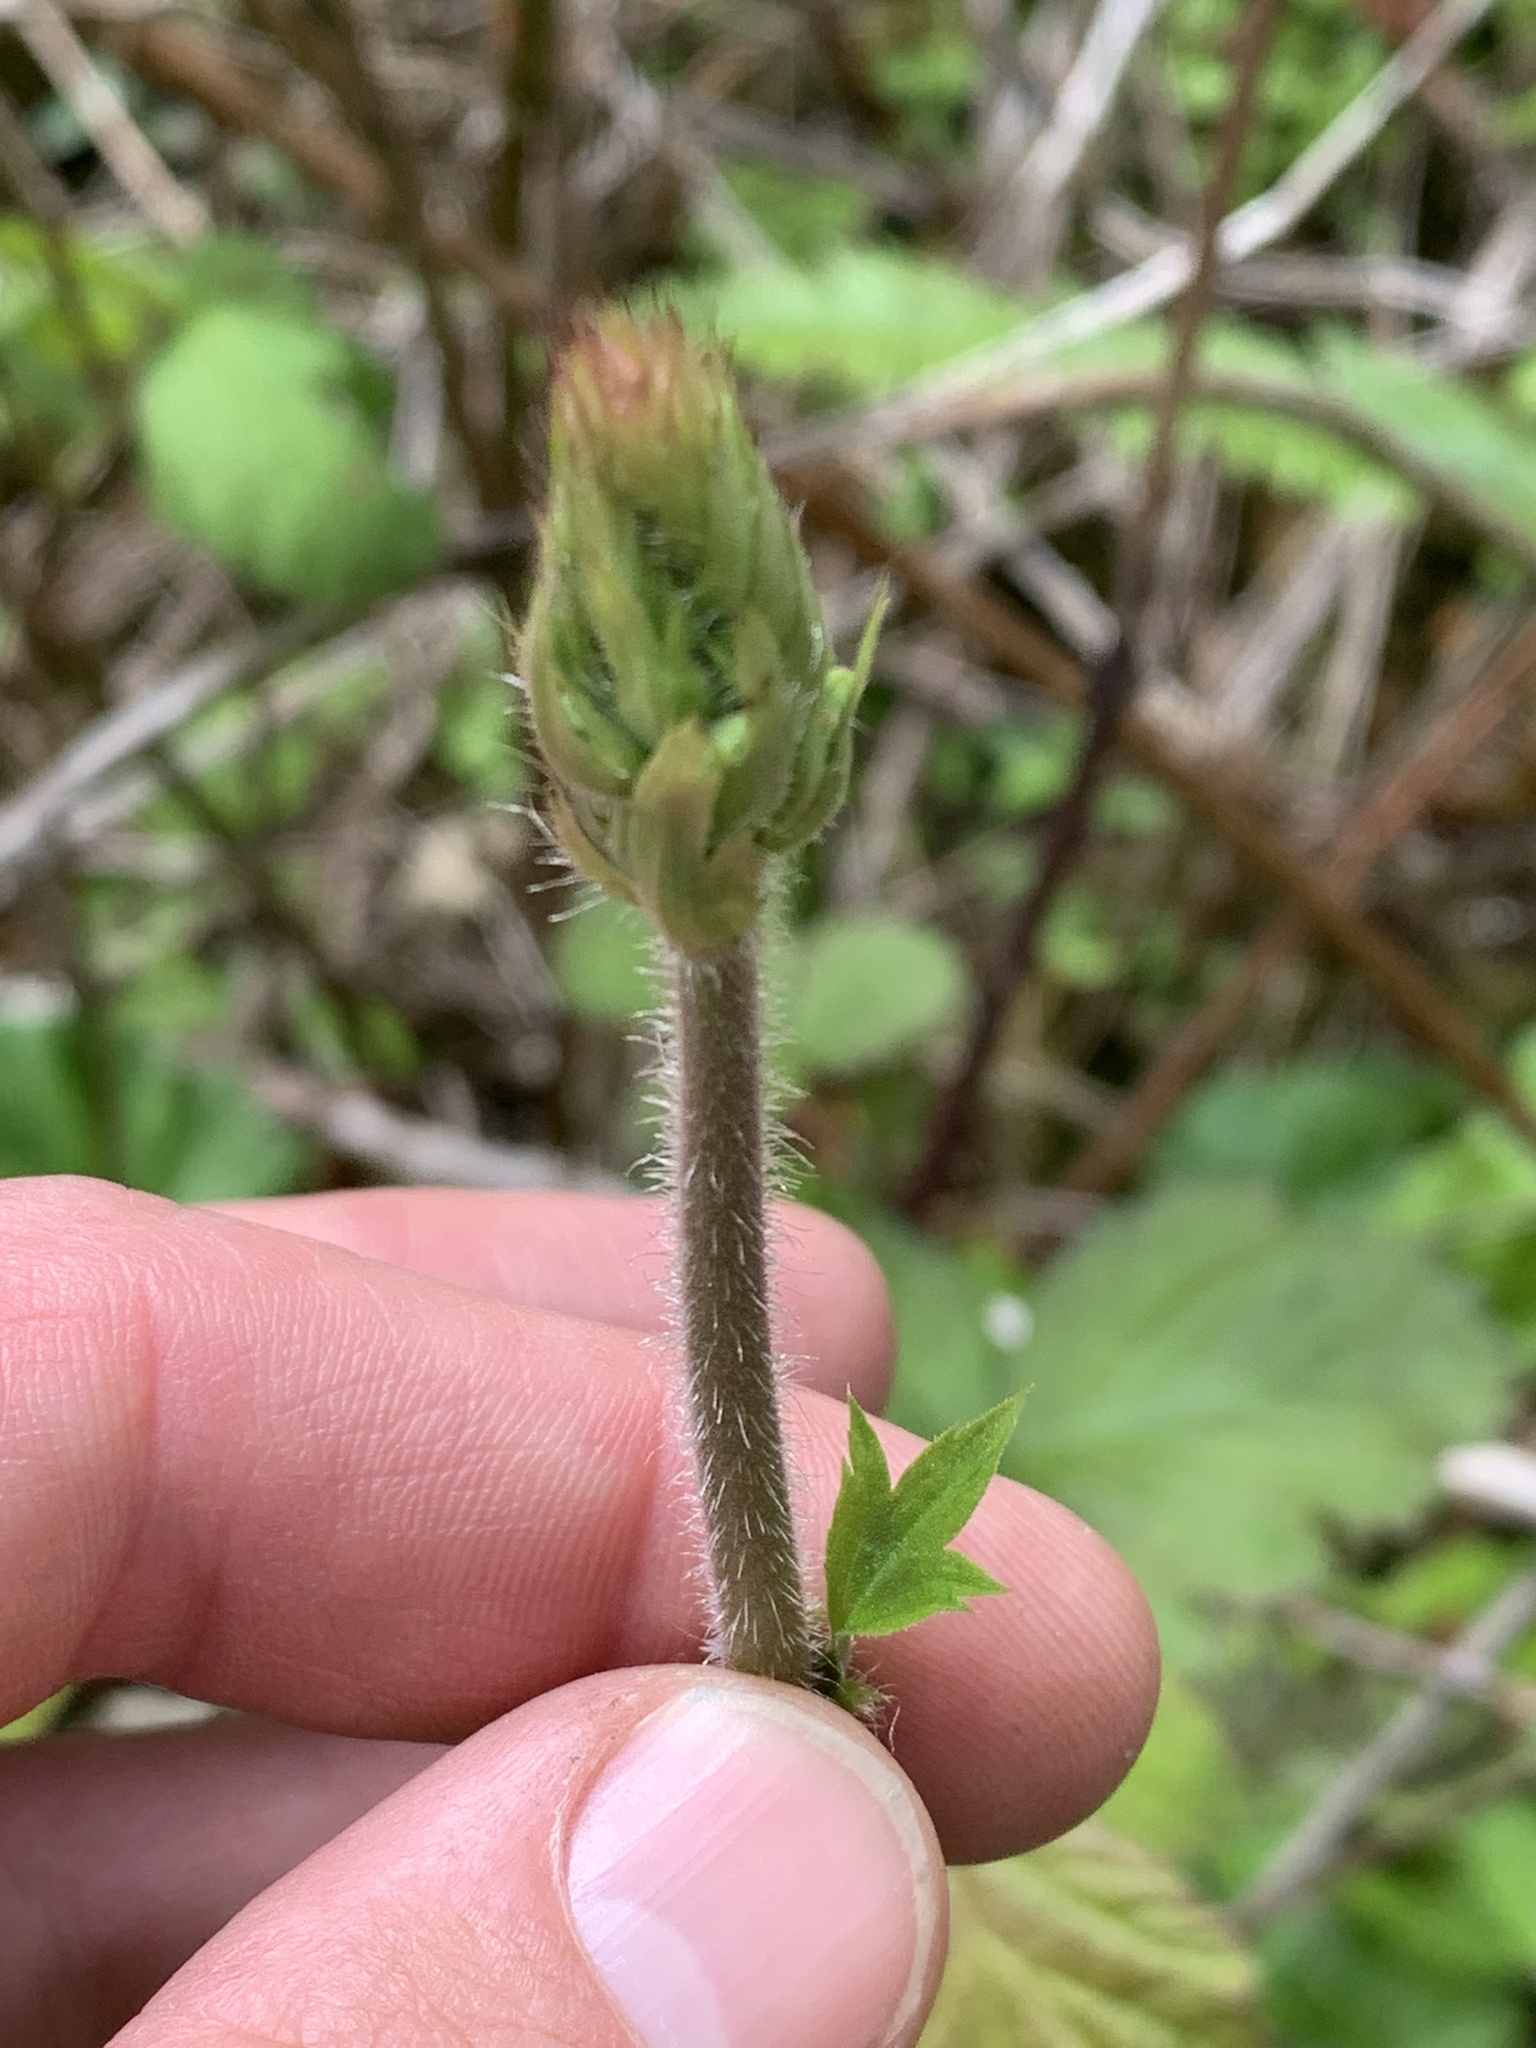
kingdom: Plantae
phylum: Tracheophyta
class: Magnoliopsida
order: Saxifragales
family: Saxifragaceae
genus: Heuchera
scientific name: Heuchera chlorantha
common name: Meadow alumroot
